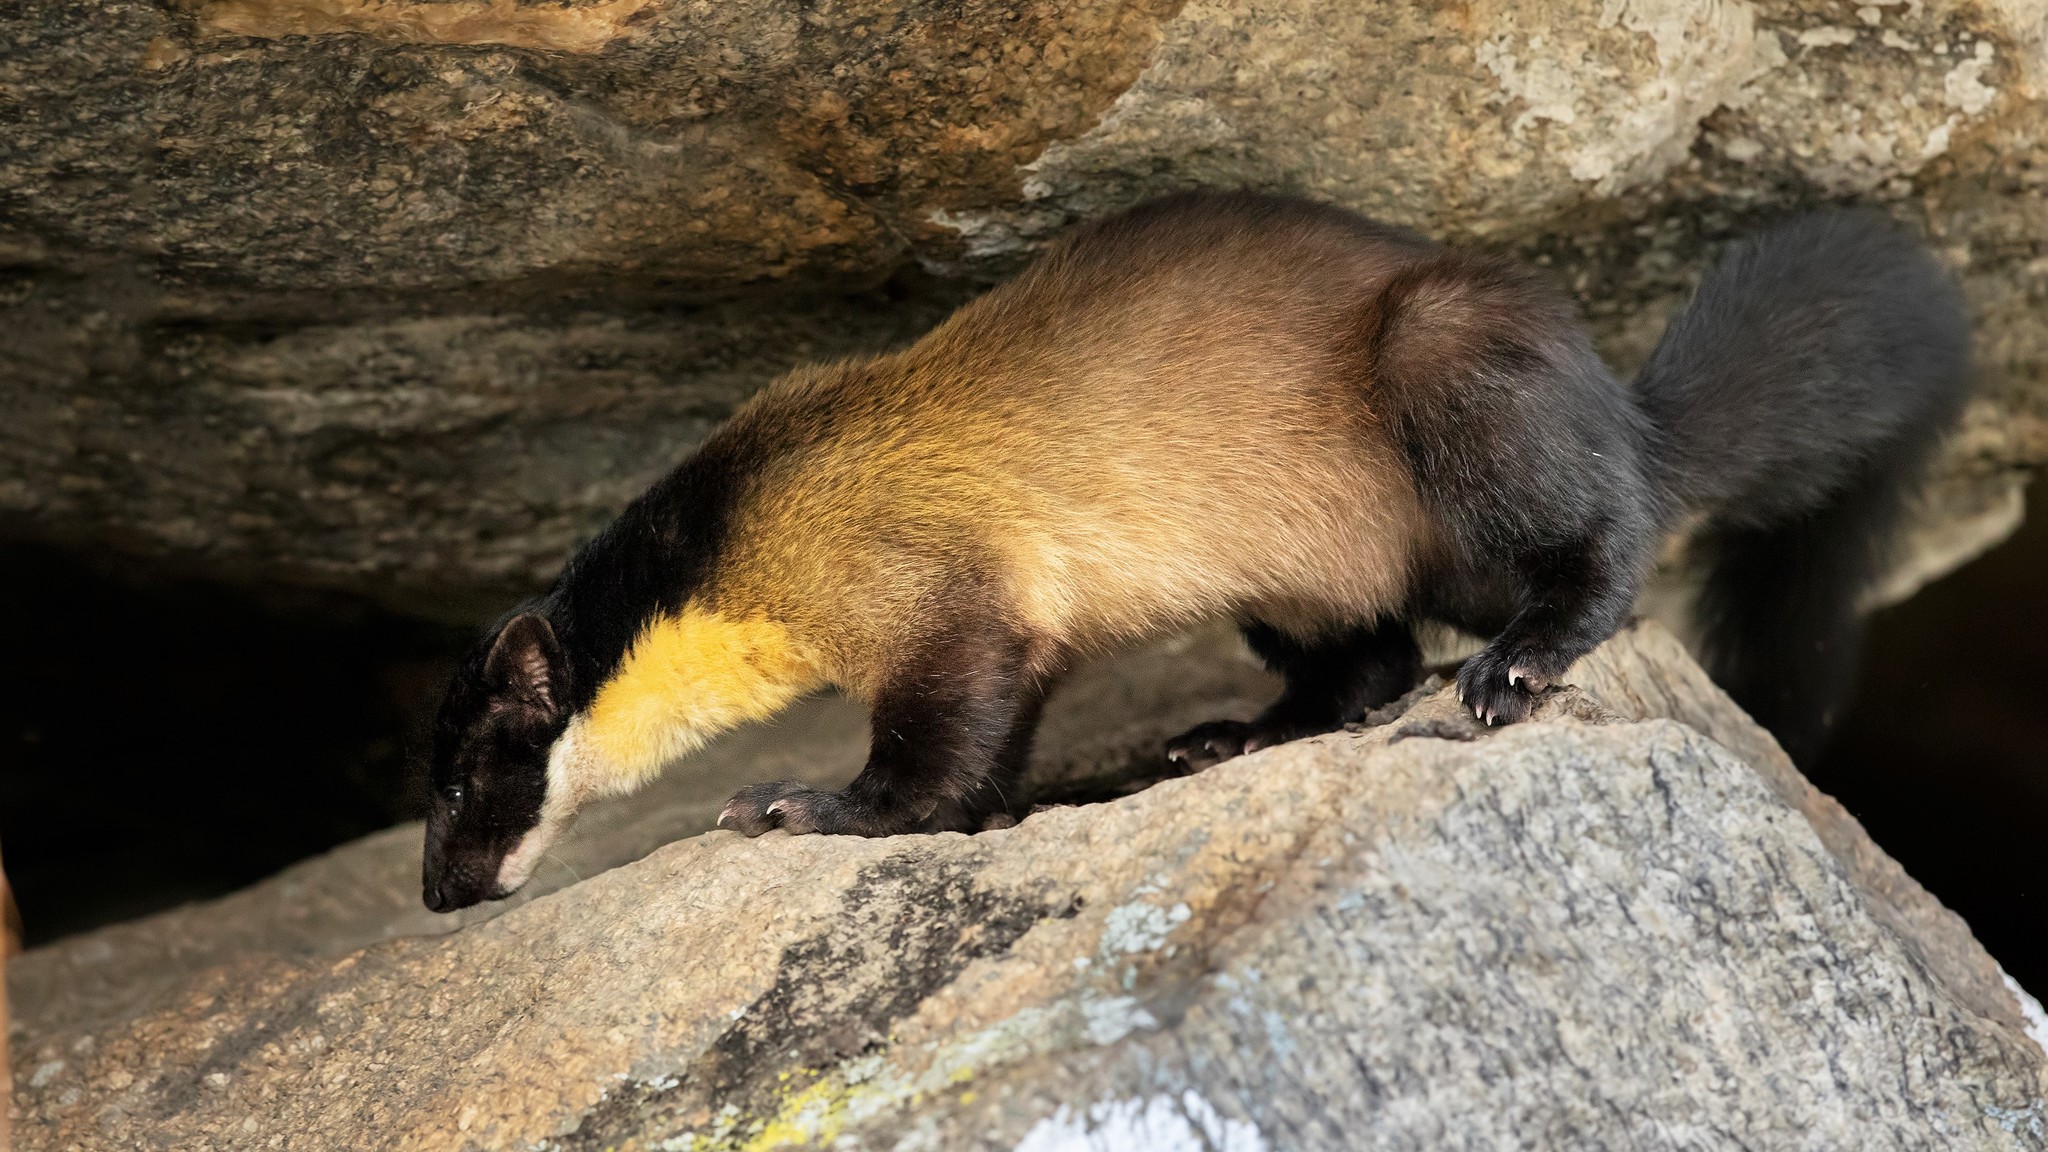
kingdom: Animalia
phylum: Chordata
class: Mammalia
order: Carnivora
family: Mustelidae
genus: Martes
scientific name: Martes flavigula
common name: Yellow-throated marten
